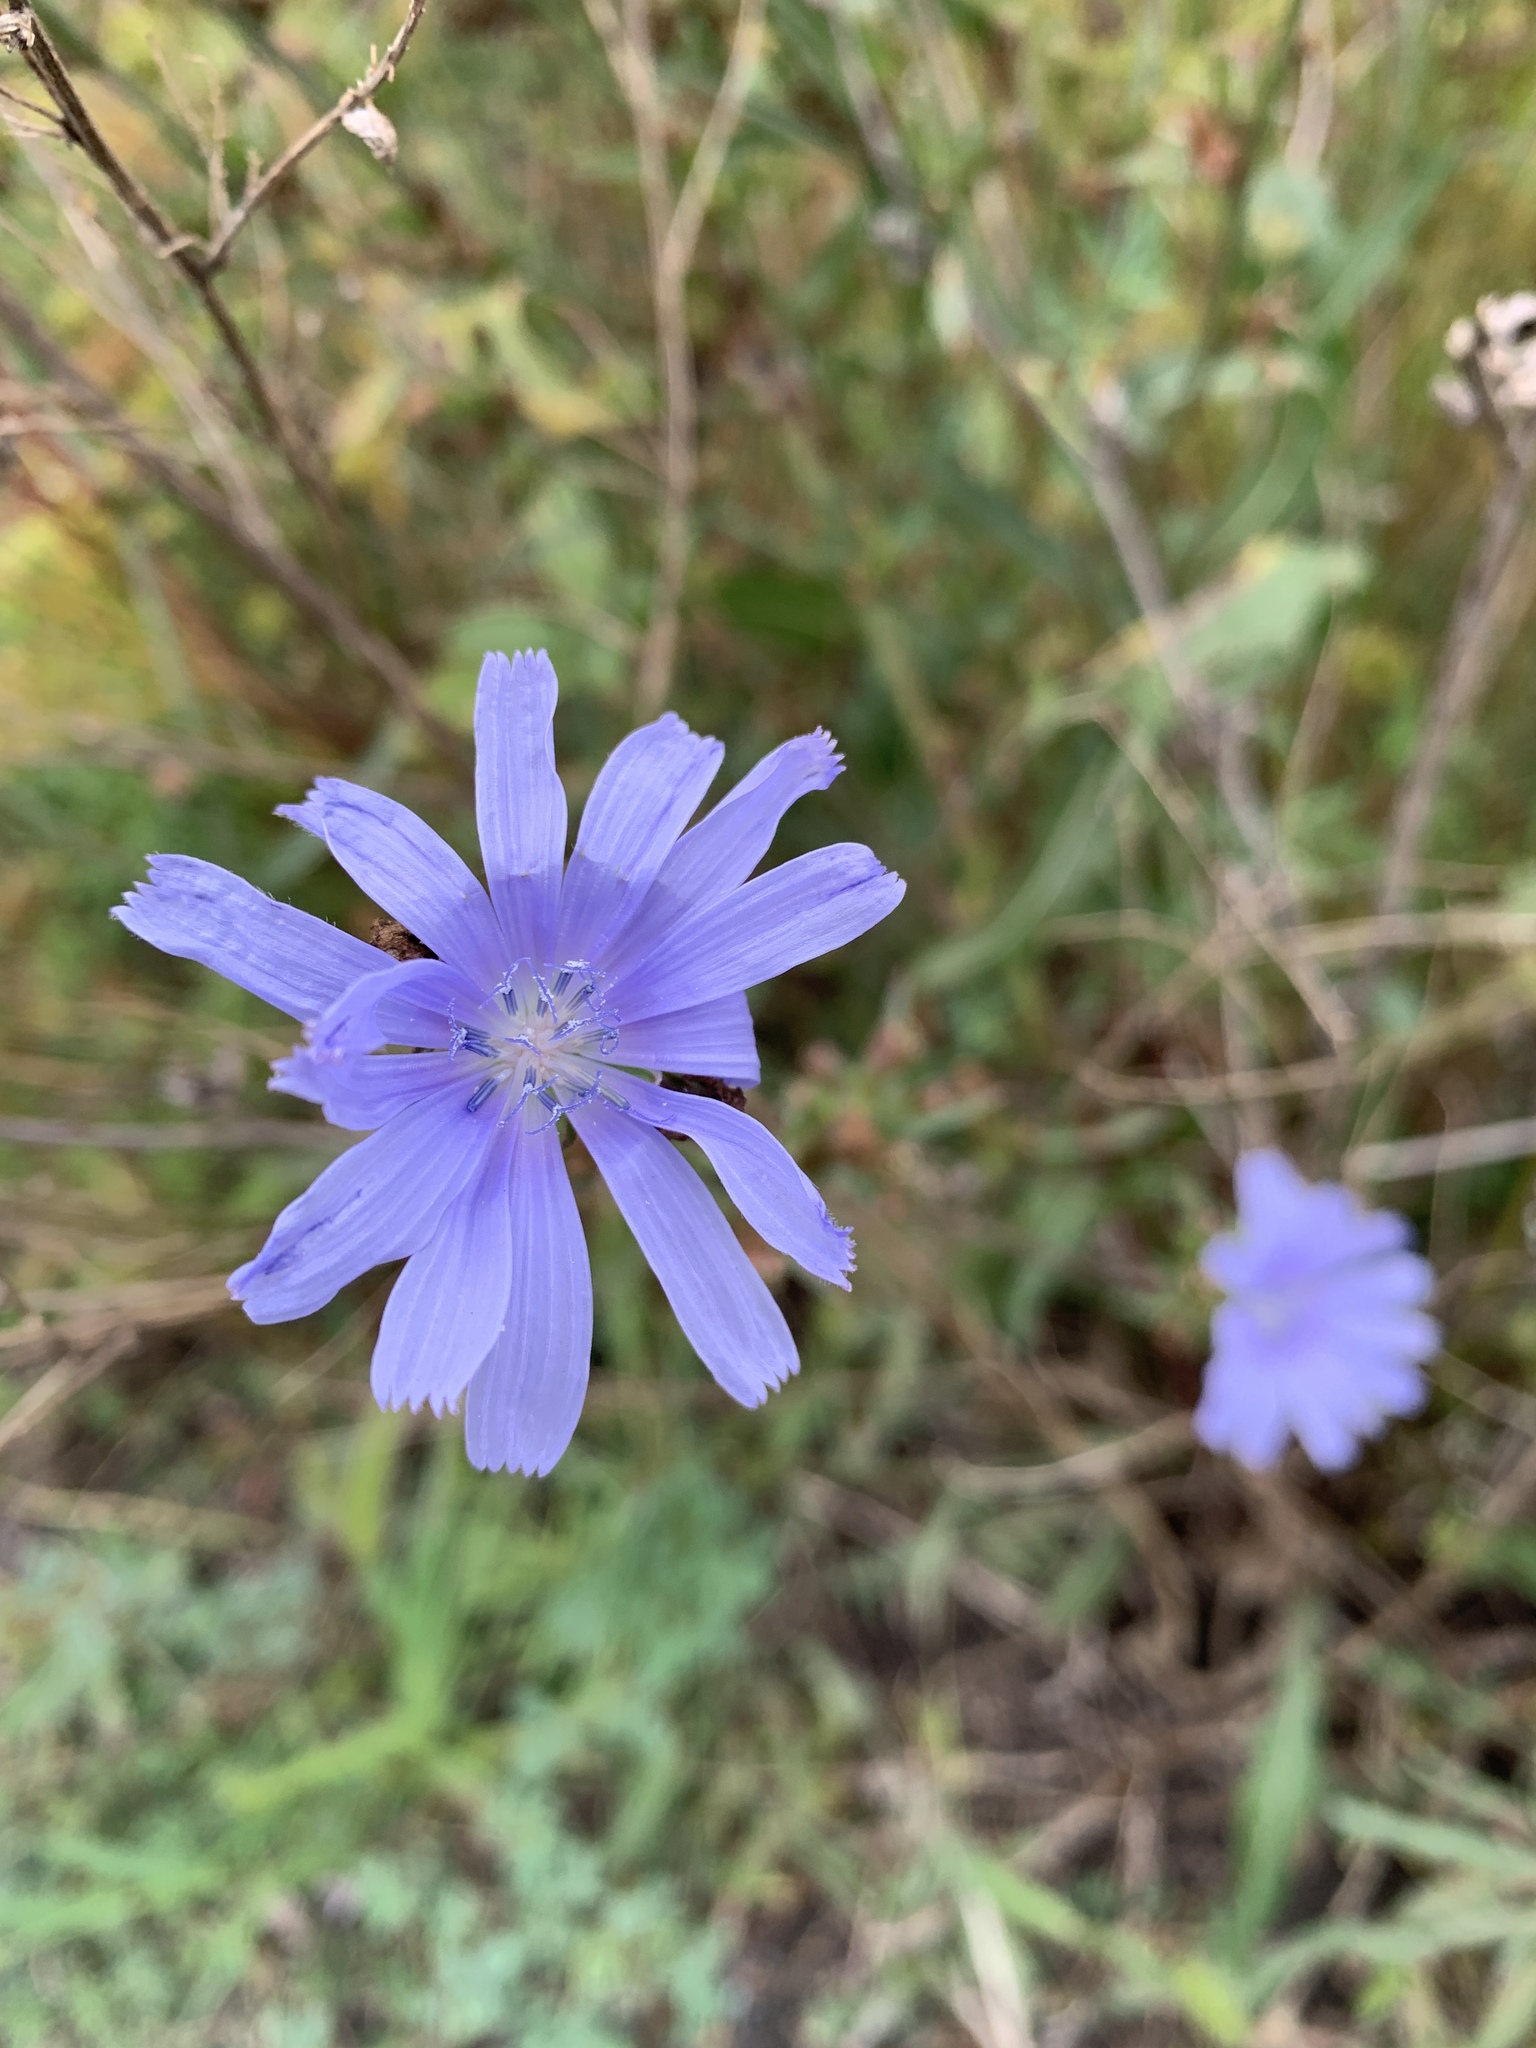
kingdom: Plantae
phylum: Tracheophyta
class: Magnoliopsida
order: Asterales
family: Asteraceae
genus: Cichorium
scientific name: Cichorium intybus
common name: Chicory
